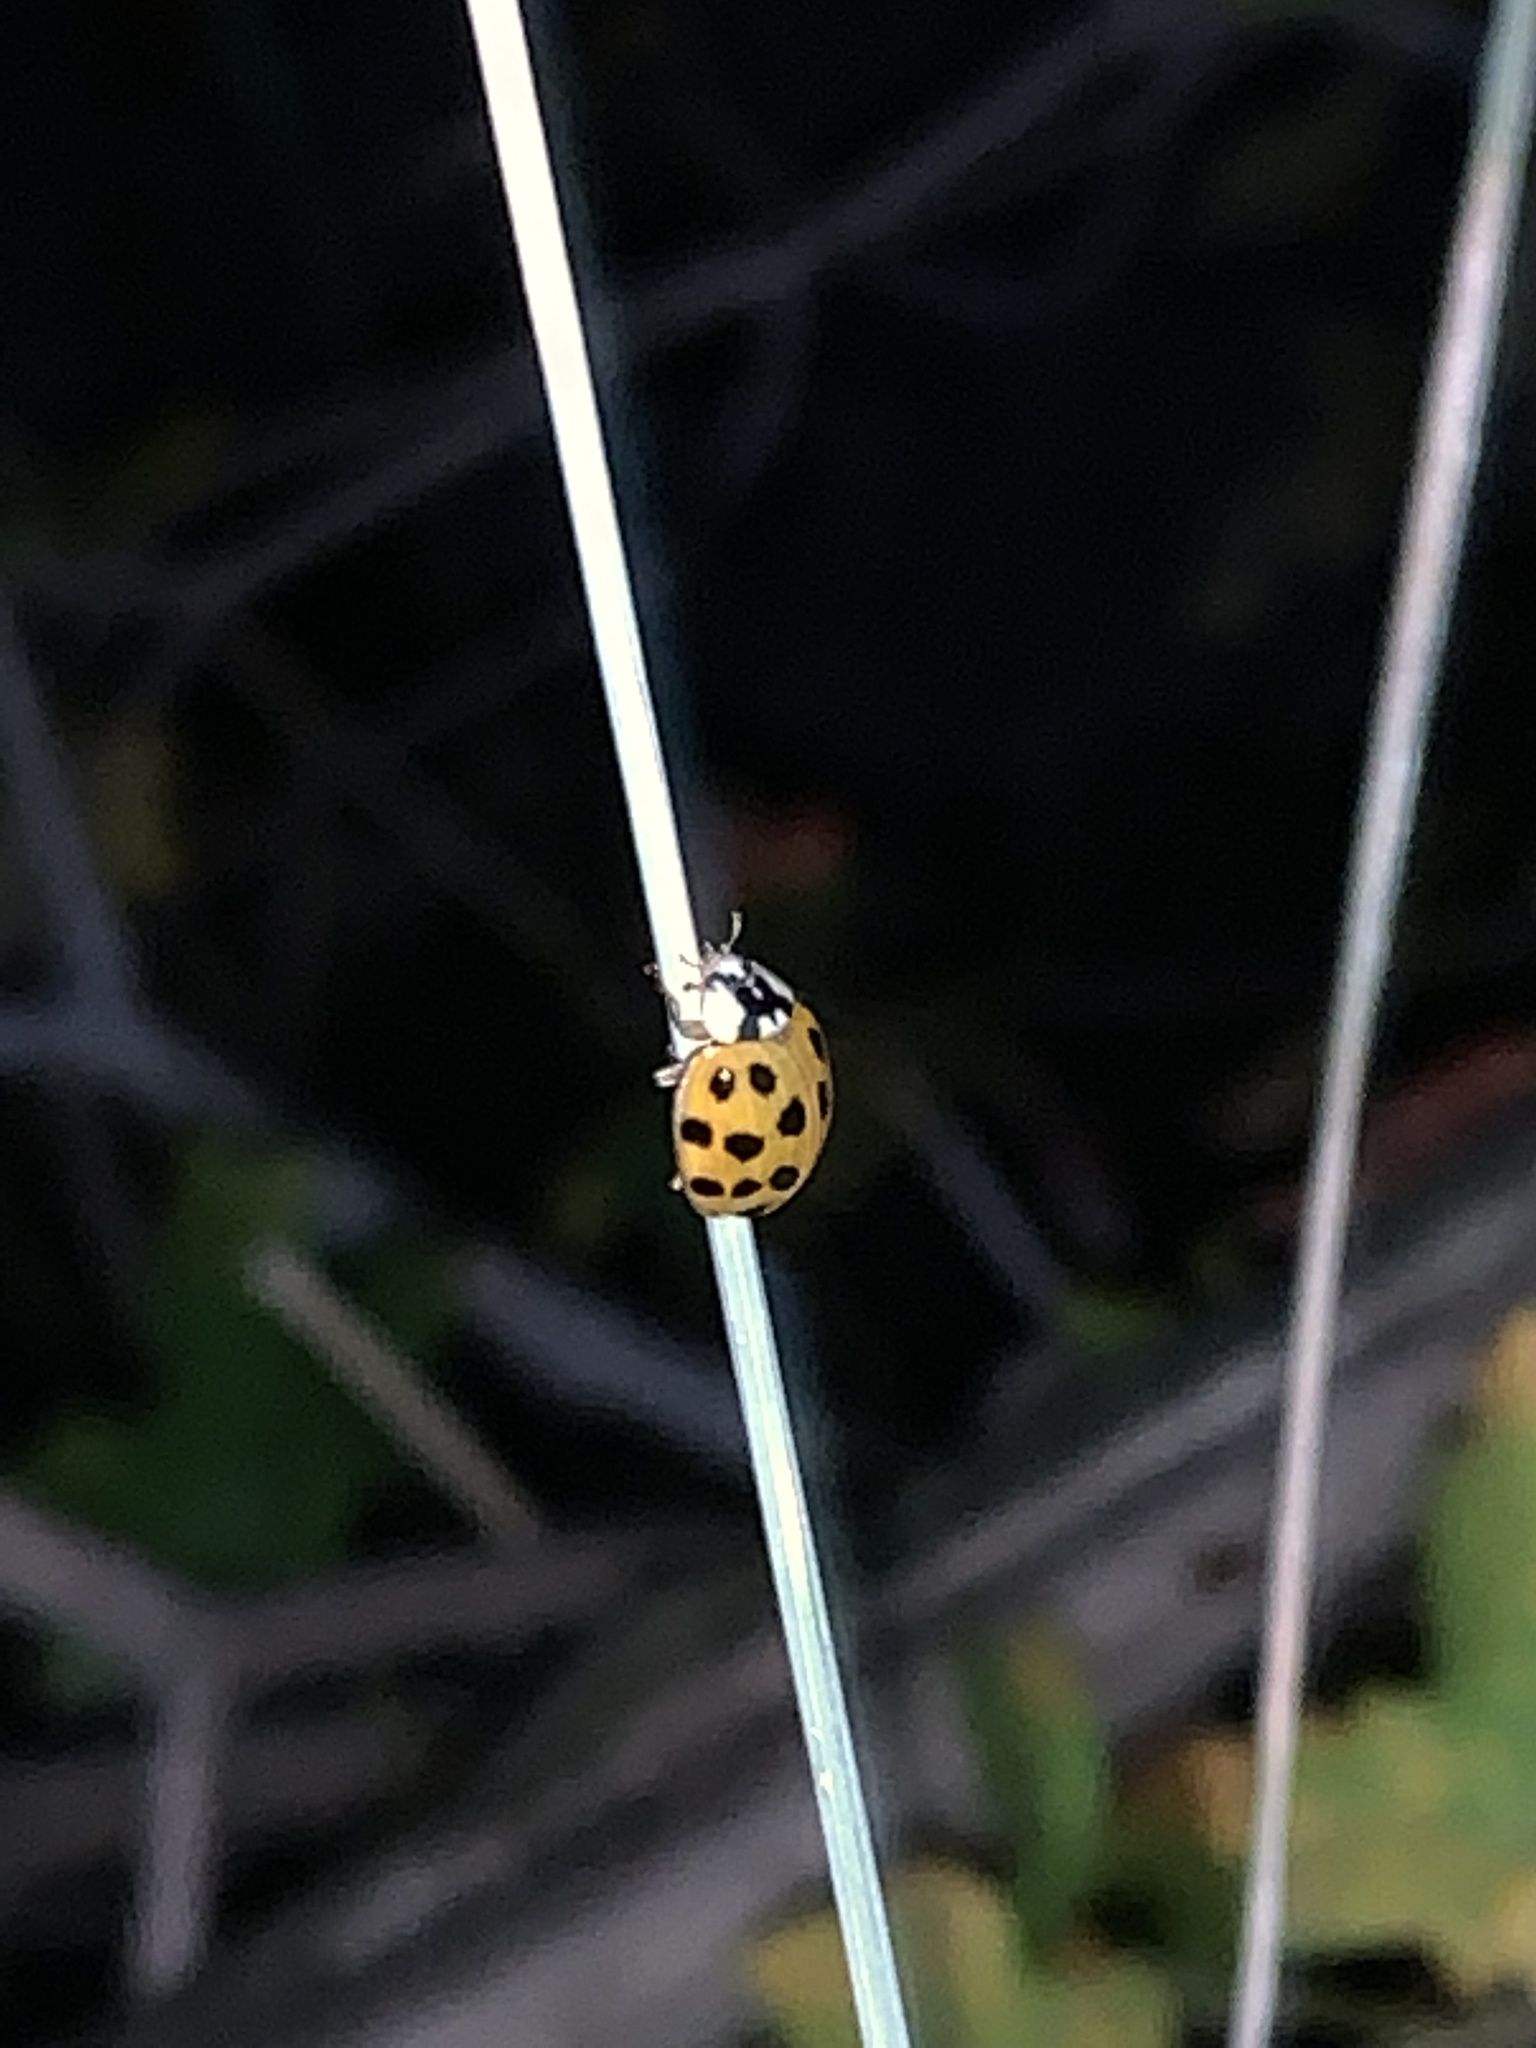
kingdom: Animalia
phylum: Arthropoda
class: Insecta
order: Coleoptera
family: Coccinellidae
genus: Harmonia
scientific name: Harmonia axyridis
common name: Harlequin ladybird
